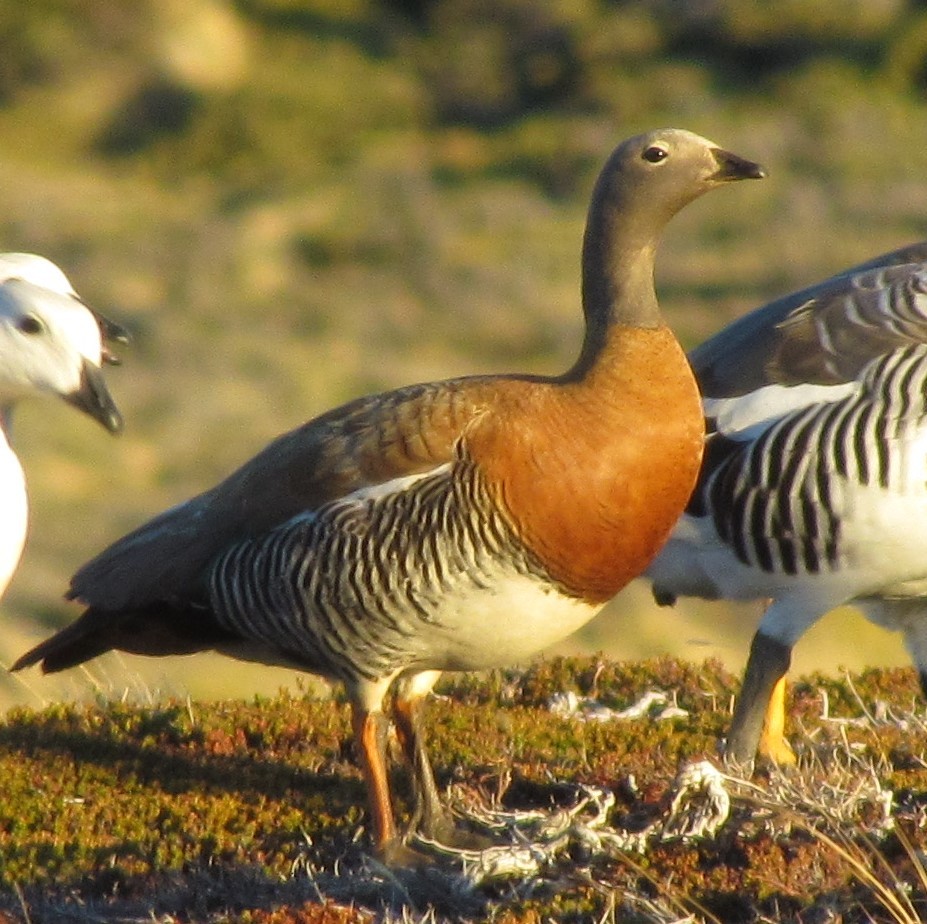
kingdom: Animalia
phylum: Chordata
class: Aves
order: Anseriformes
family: Anatidae
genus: Chloephaga
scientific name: Chloephaga poliocephala
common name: Ashy-headed goose
